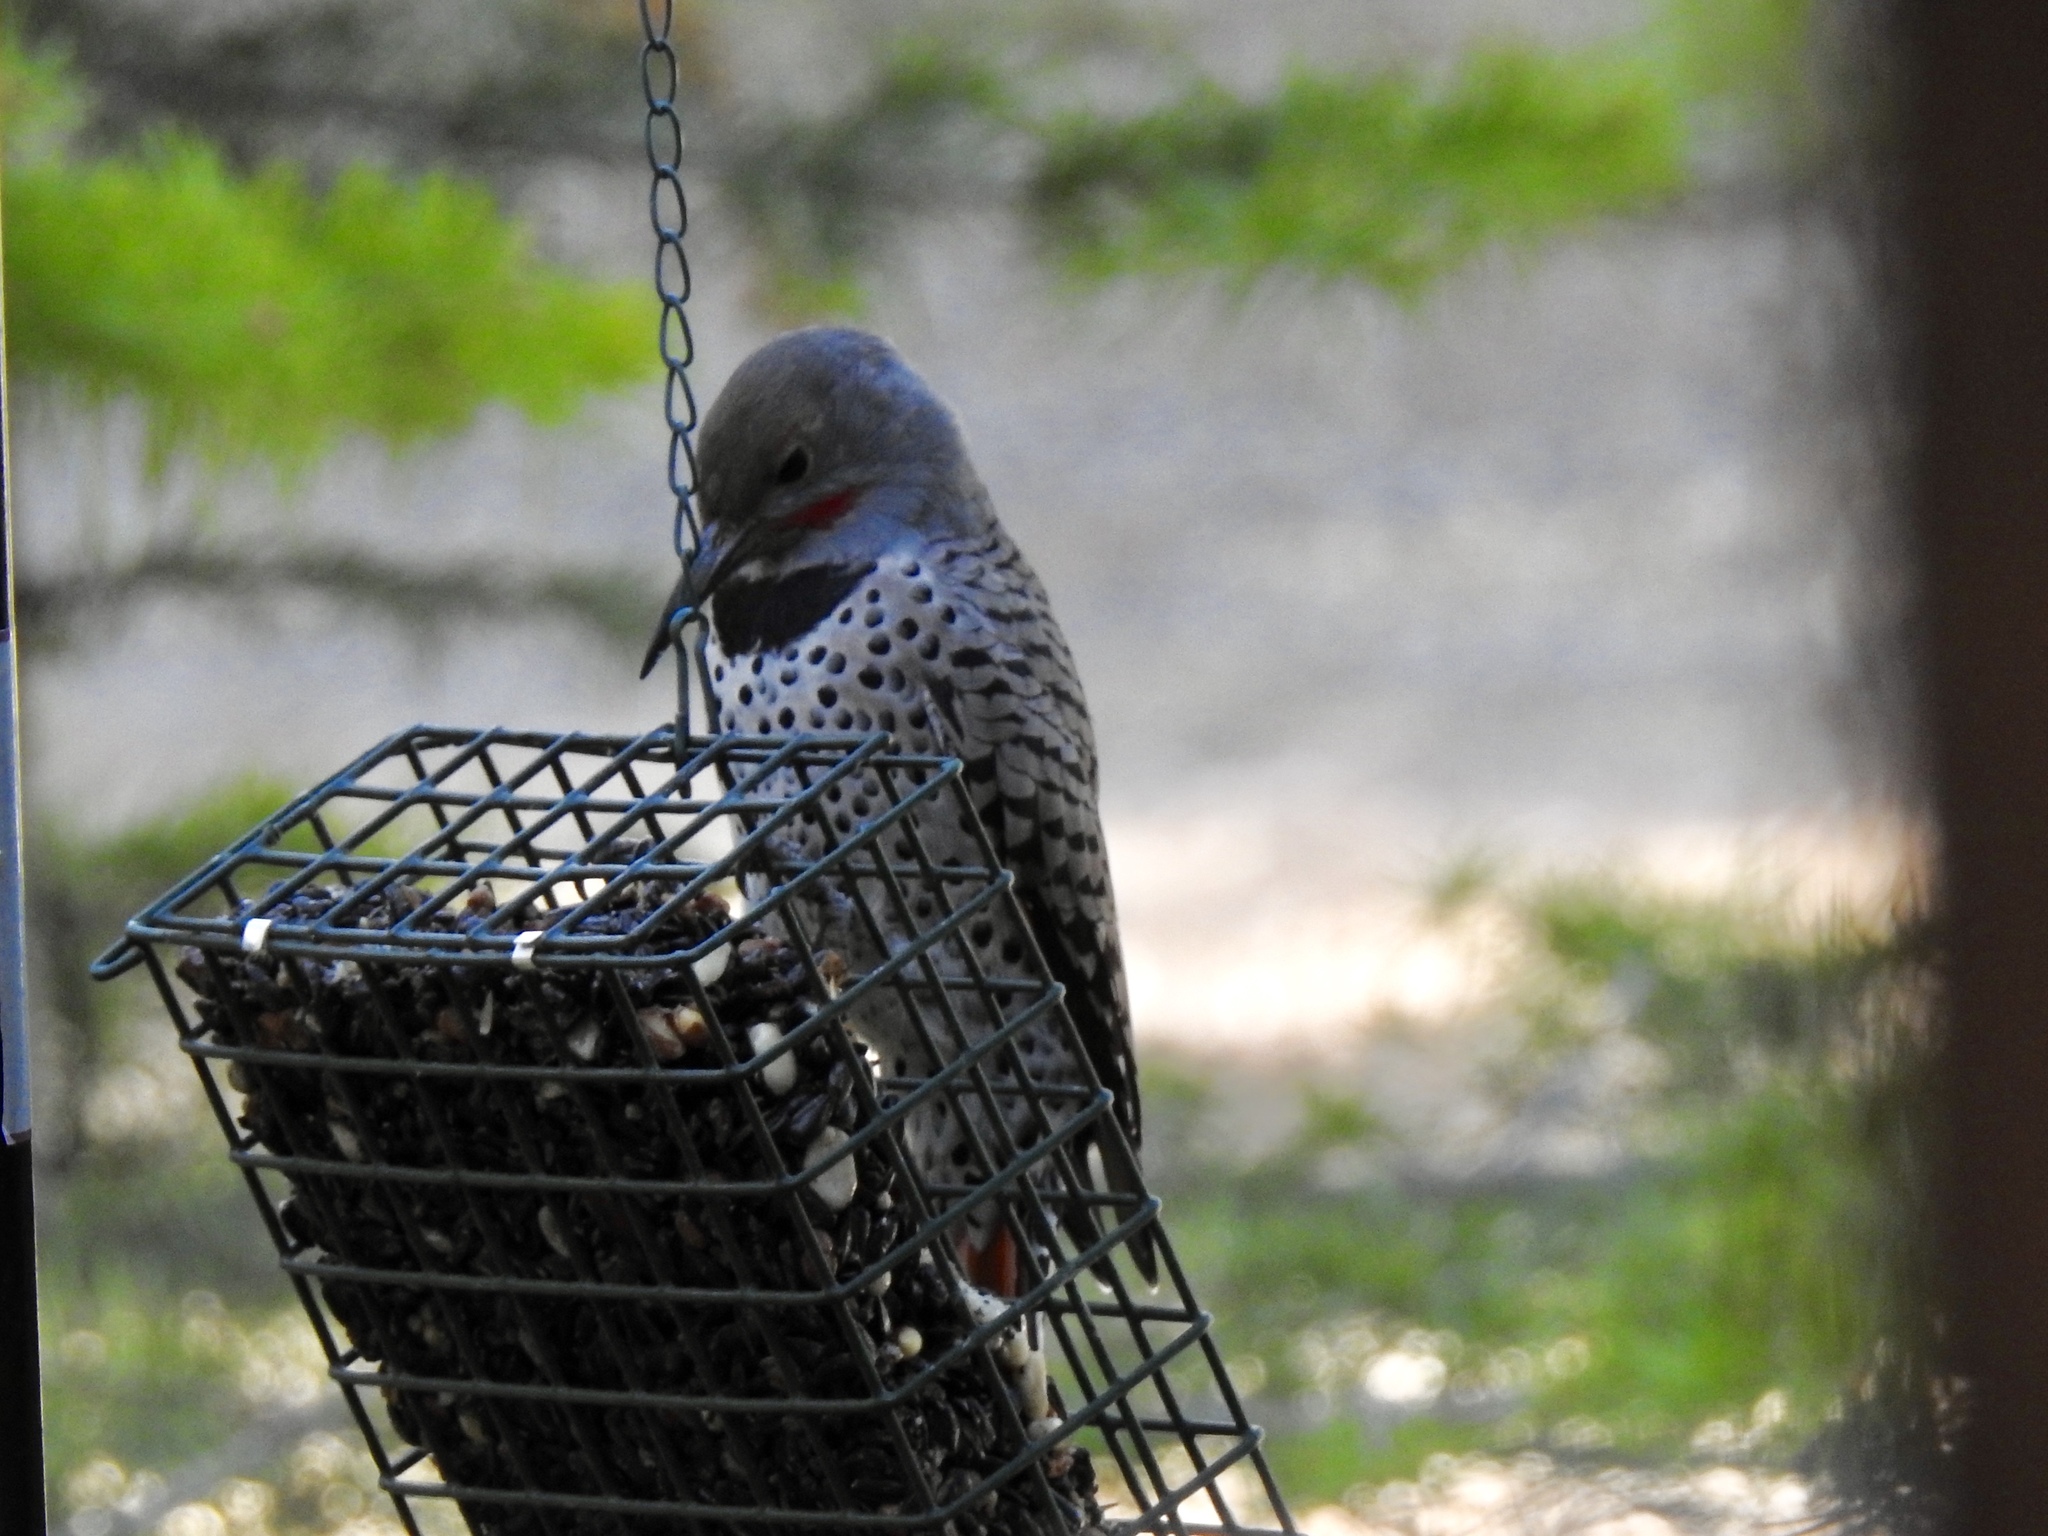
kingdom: Animalia
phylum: Chordata
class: Aves
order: Piciformes
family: Picidae
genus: Colaptes
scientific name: Colaptes auratus
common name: Northern flicker
